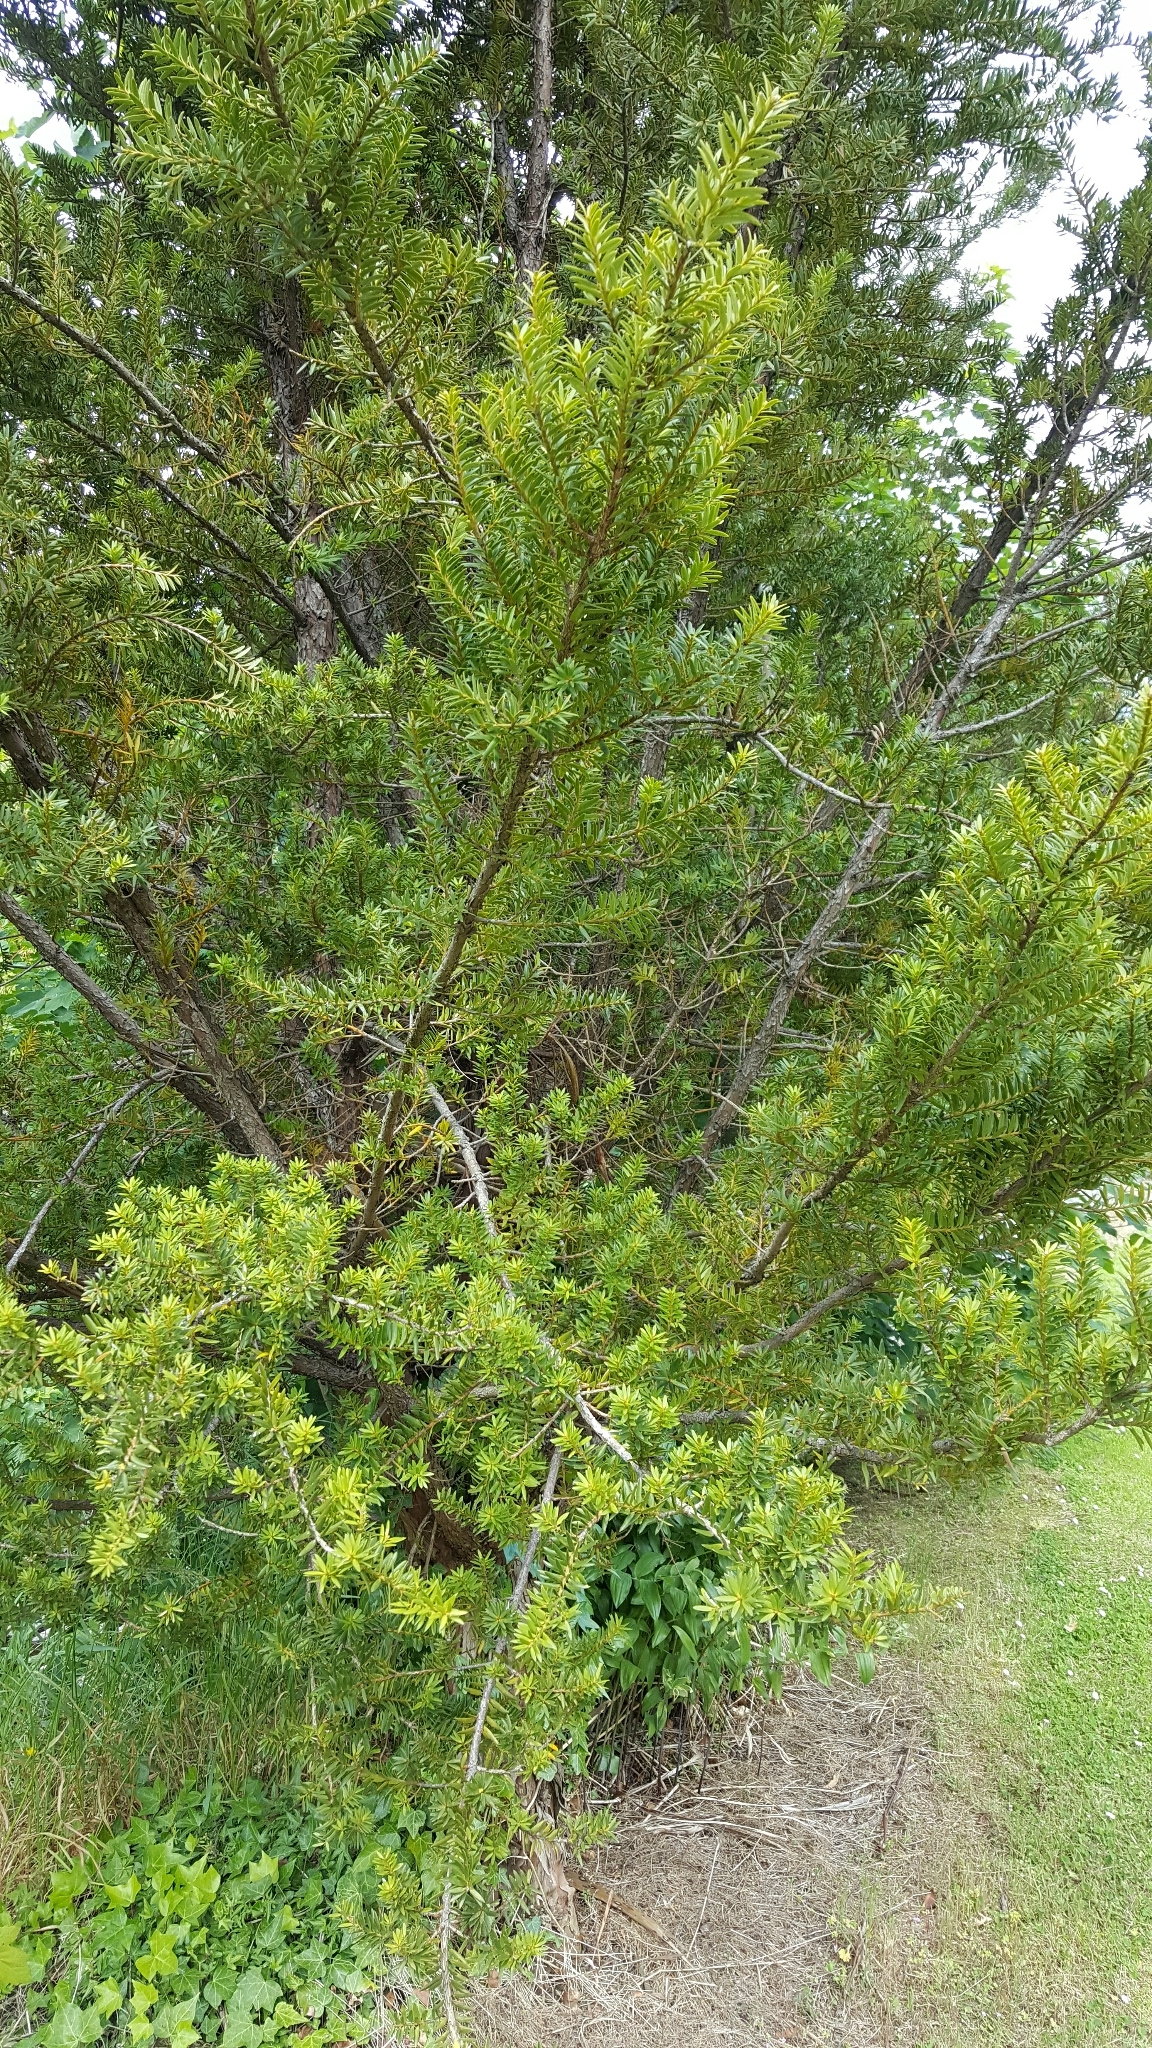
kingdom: Plantae
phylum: Tracheophyta
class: Pinopsida
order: Pinales
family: Podocarpaceae
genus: Podocarpus
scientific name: Podocarpus totara
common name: Totara
